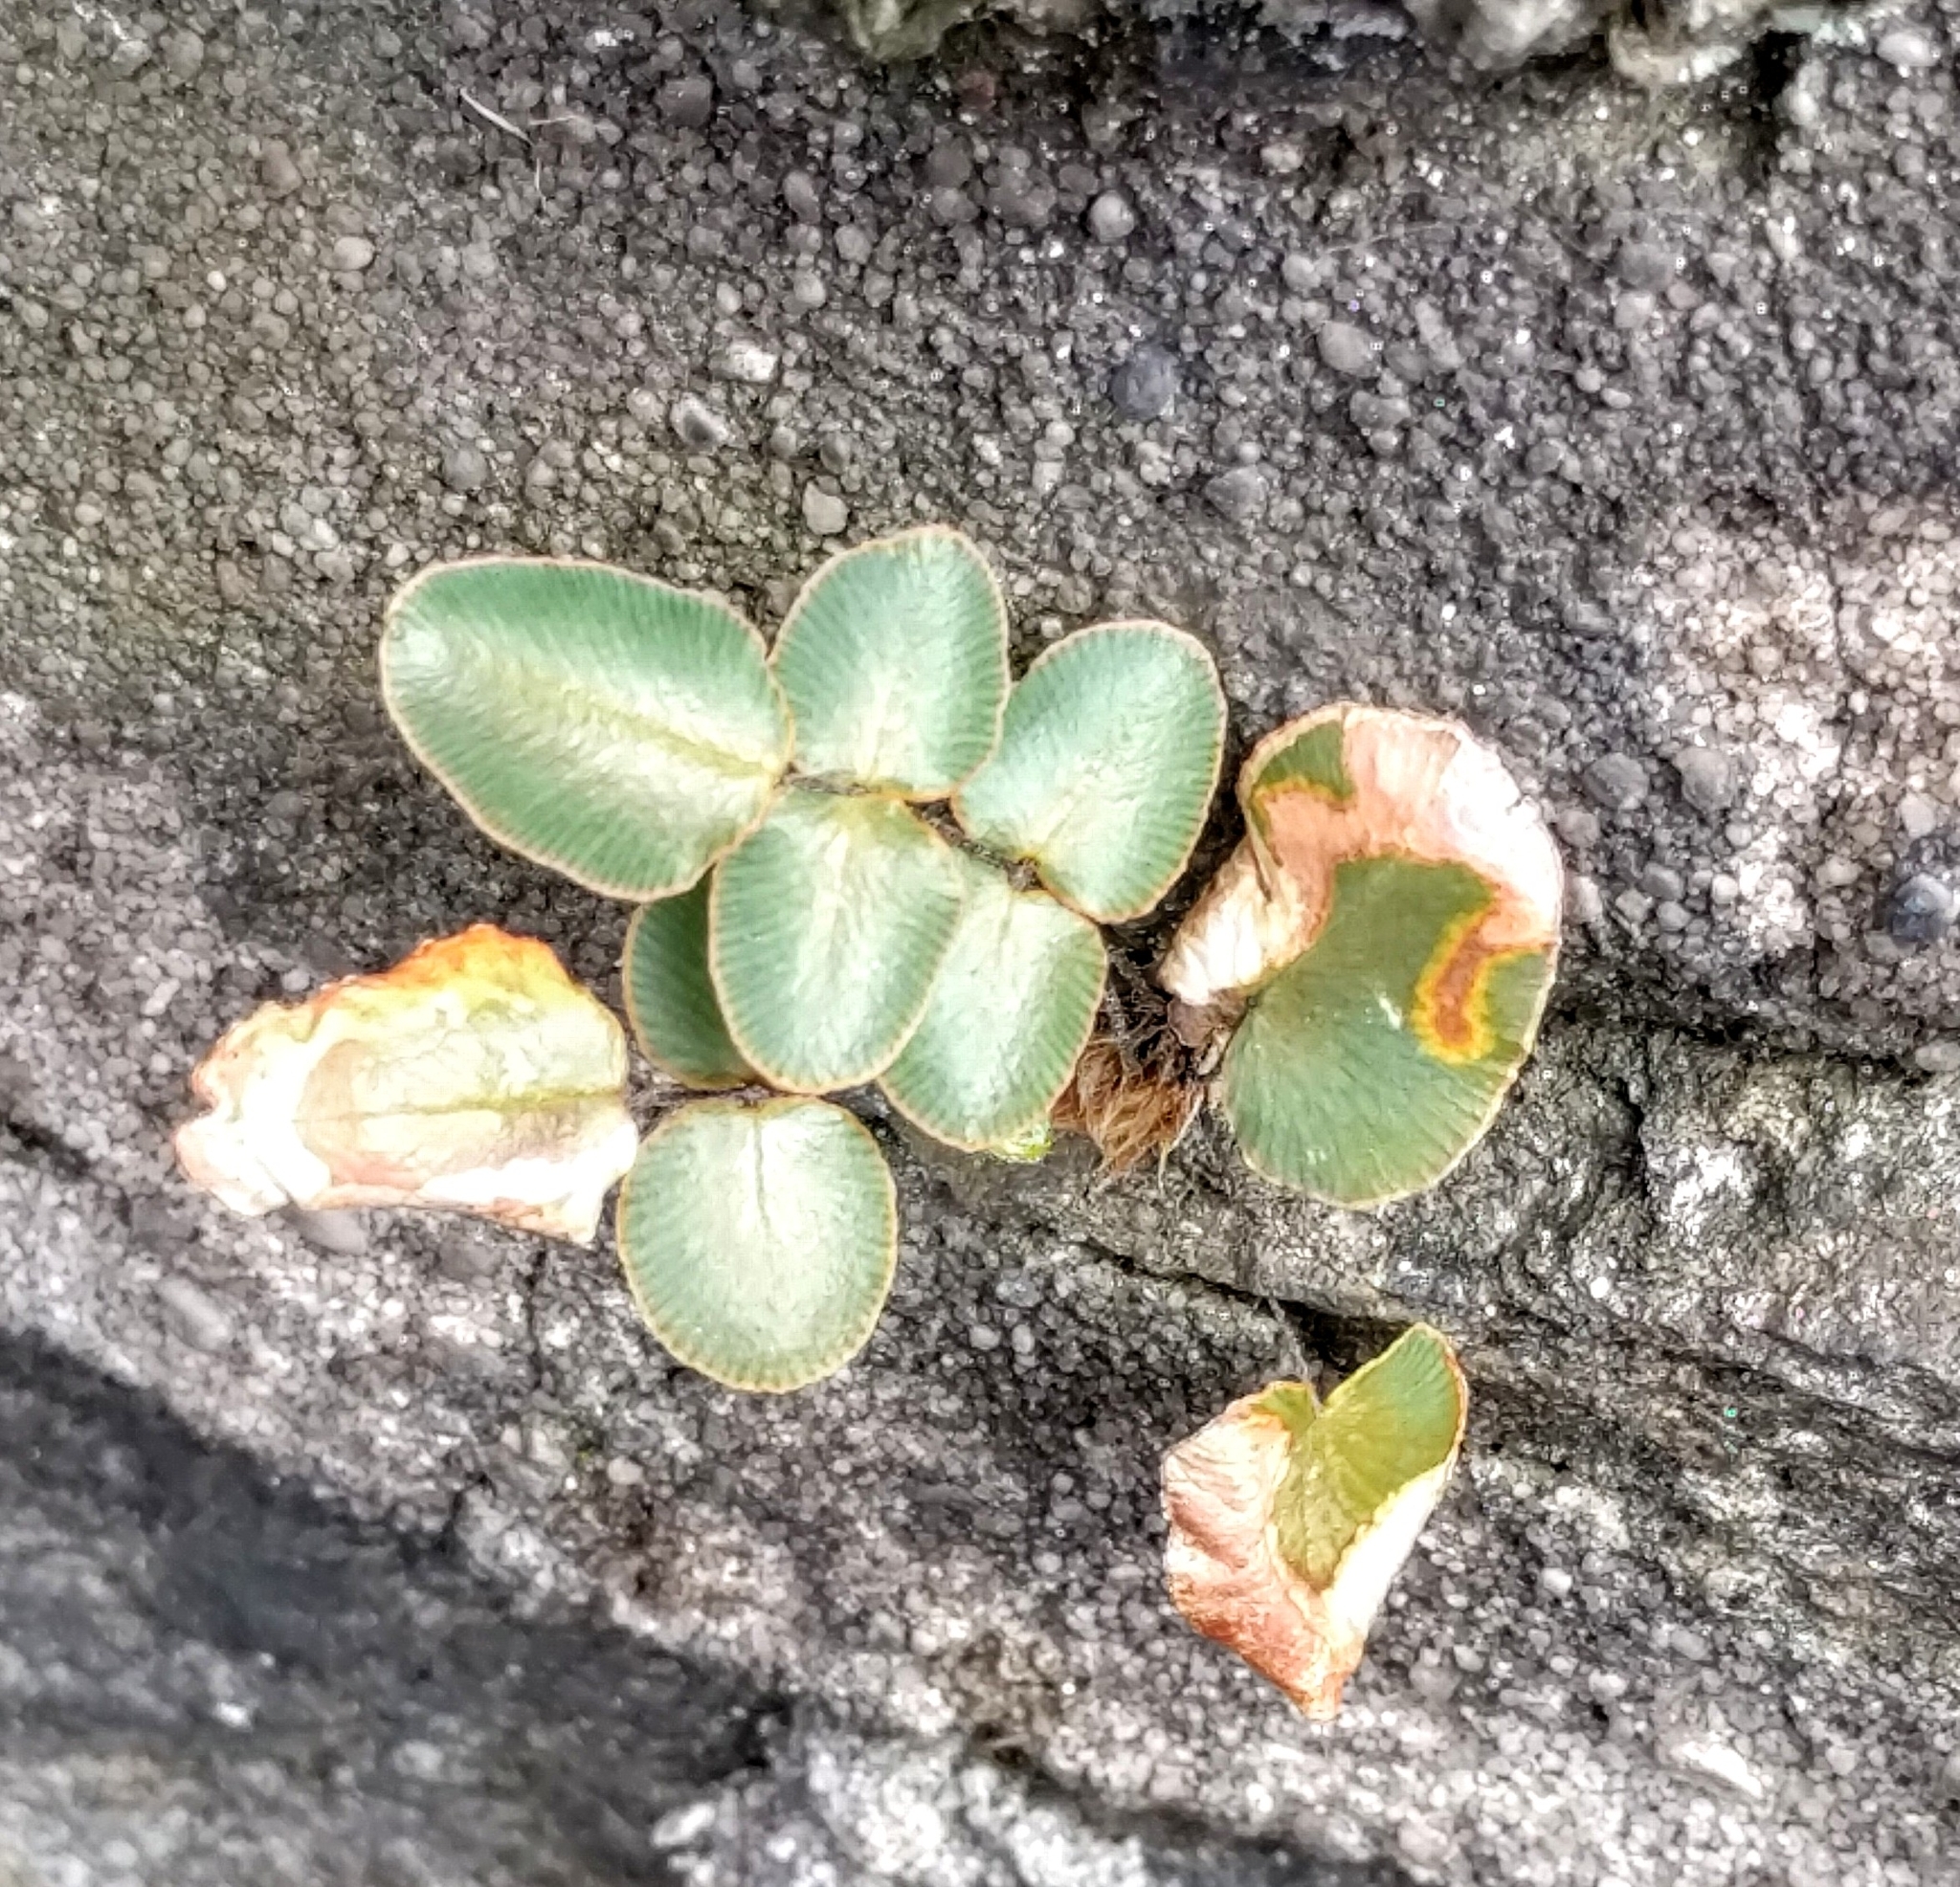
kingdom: Plantae
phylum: Tracheophyta
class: Polypodiopsida
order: Polypodiales
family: Pteridaceae
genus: Pellaea
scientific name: Pellaea atropurpurea
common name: Hairy cliffbrake
